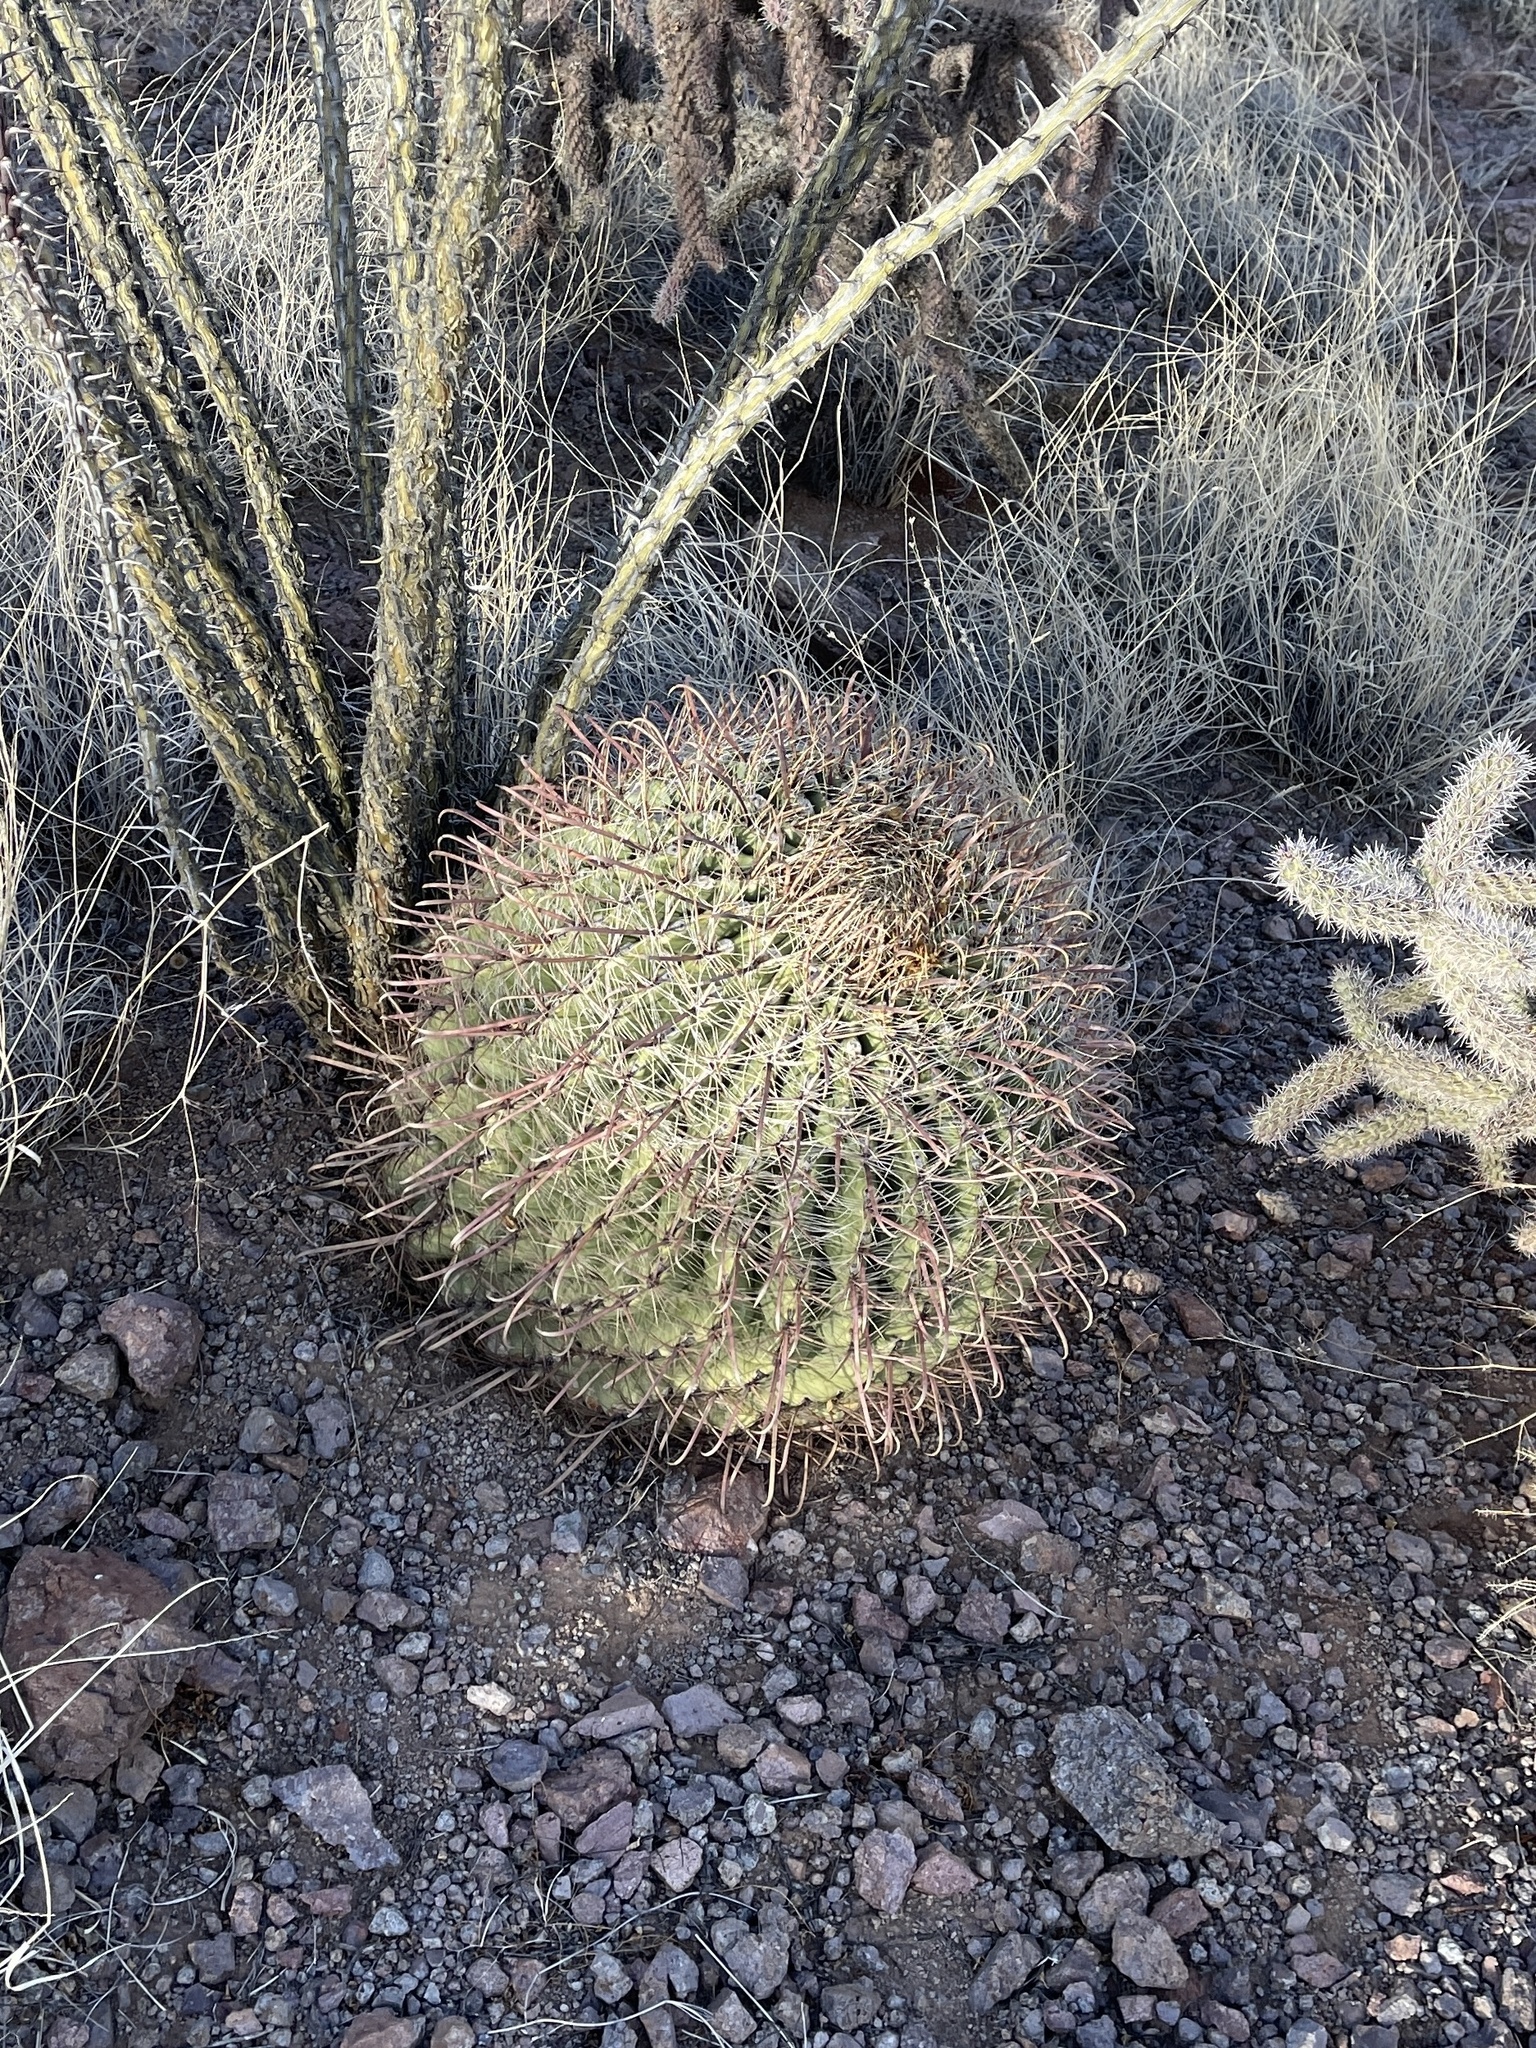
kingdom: Plantae
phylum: Tracheophyta
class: Magnoliopsida
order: Caryophyllales
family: Cactaceae
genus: Ferocactus
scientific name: Ferocactus wislizeni
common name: Candy barrel cactus
